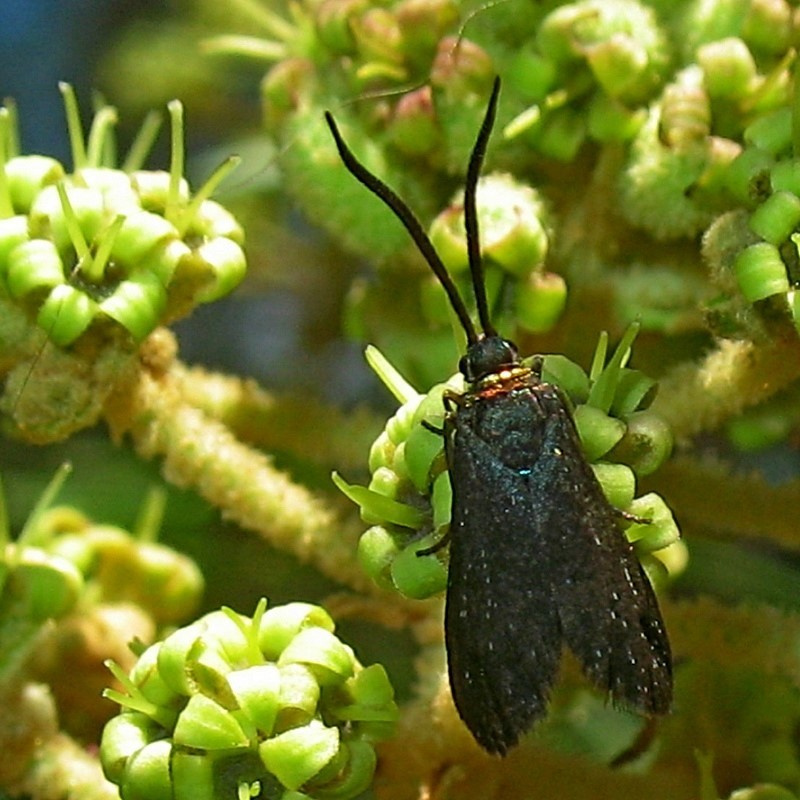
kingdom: Animalia
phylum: Arthropoda
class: Insecta
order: Lepidoptera
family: Zygaenidae
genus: Pollanisus
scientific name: Pollanisus subdolosa
